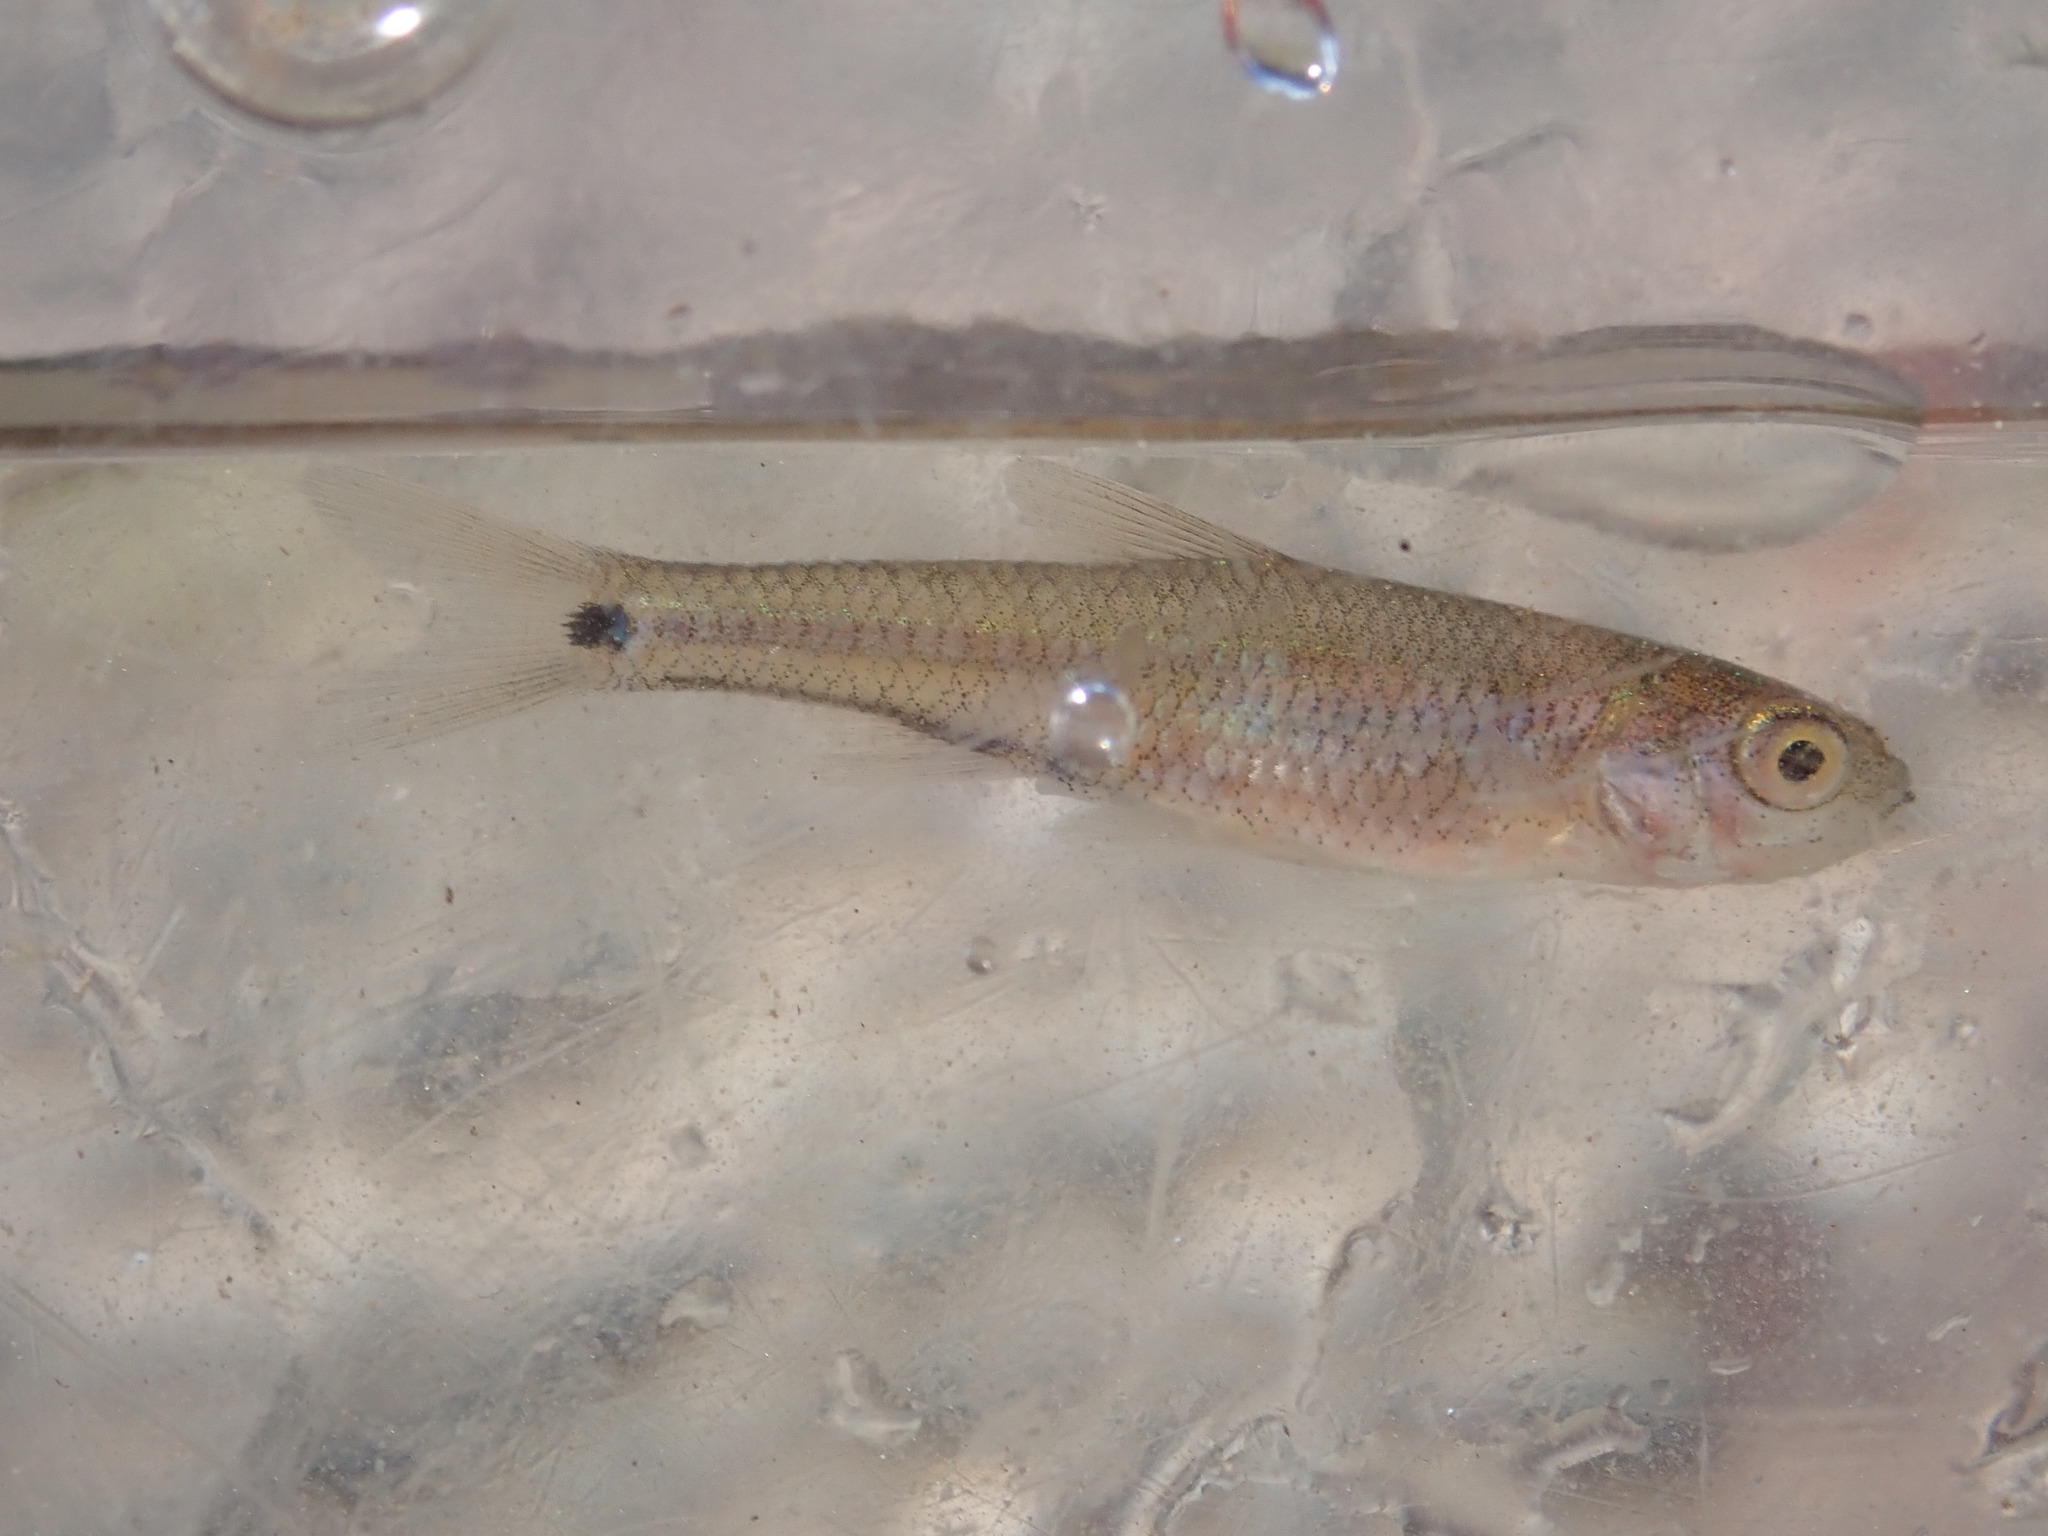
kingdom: Animalia
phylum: Chordata
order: Cypriniformes
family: Cyprinidae
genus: Notropis
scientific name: Notropis
